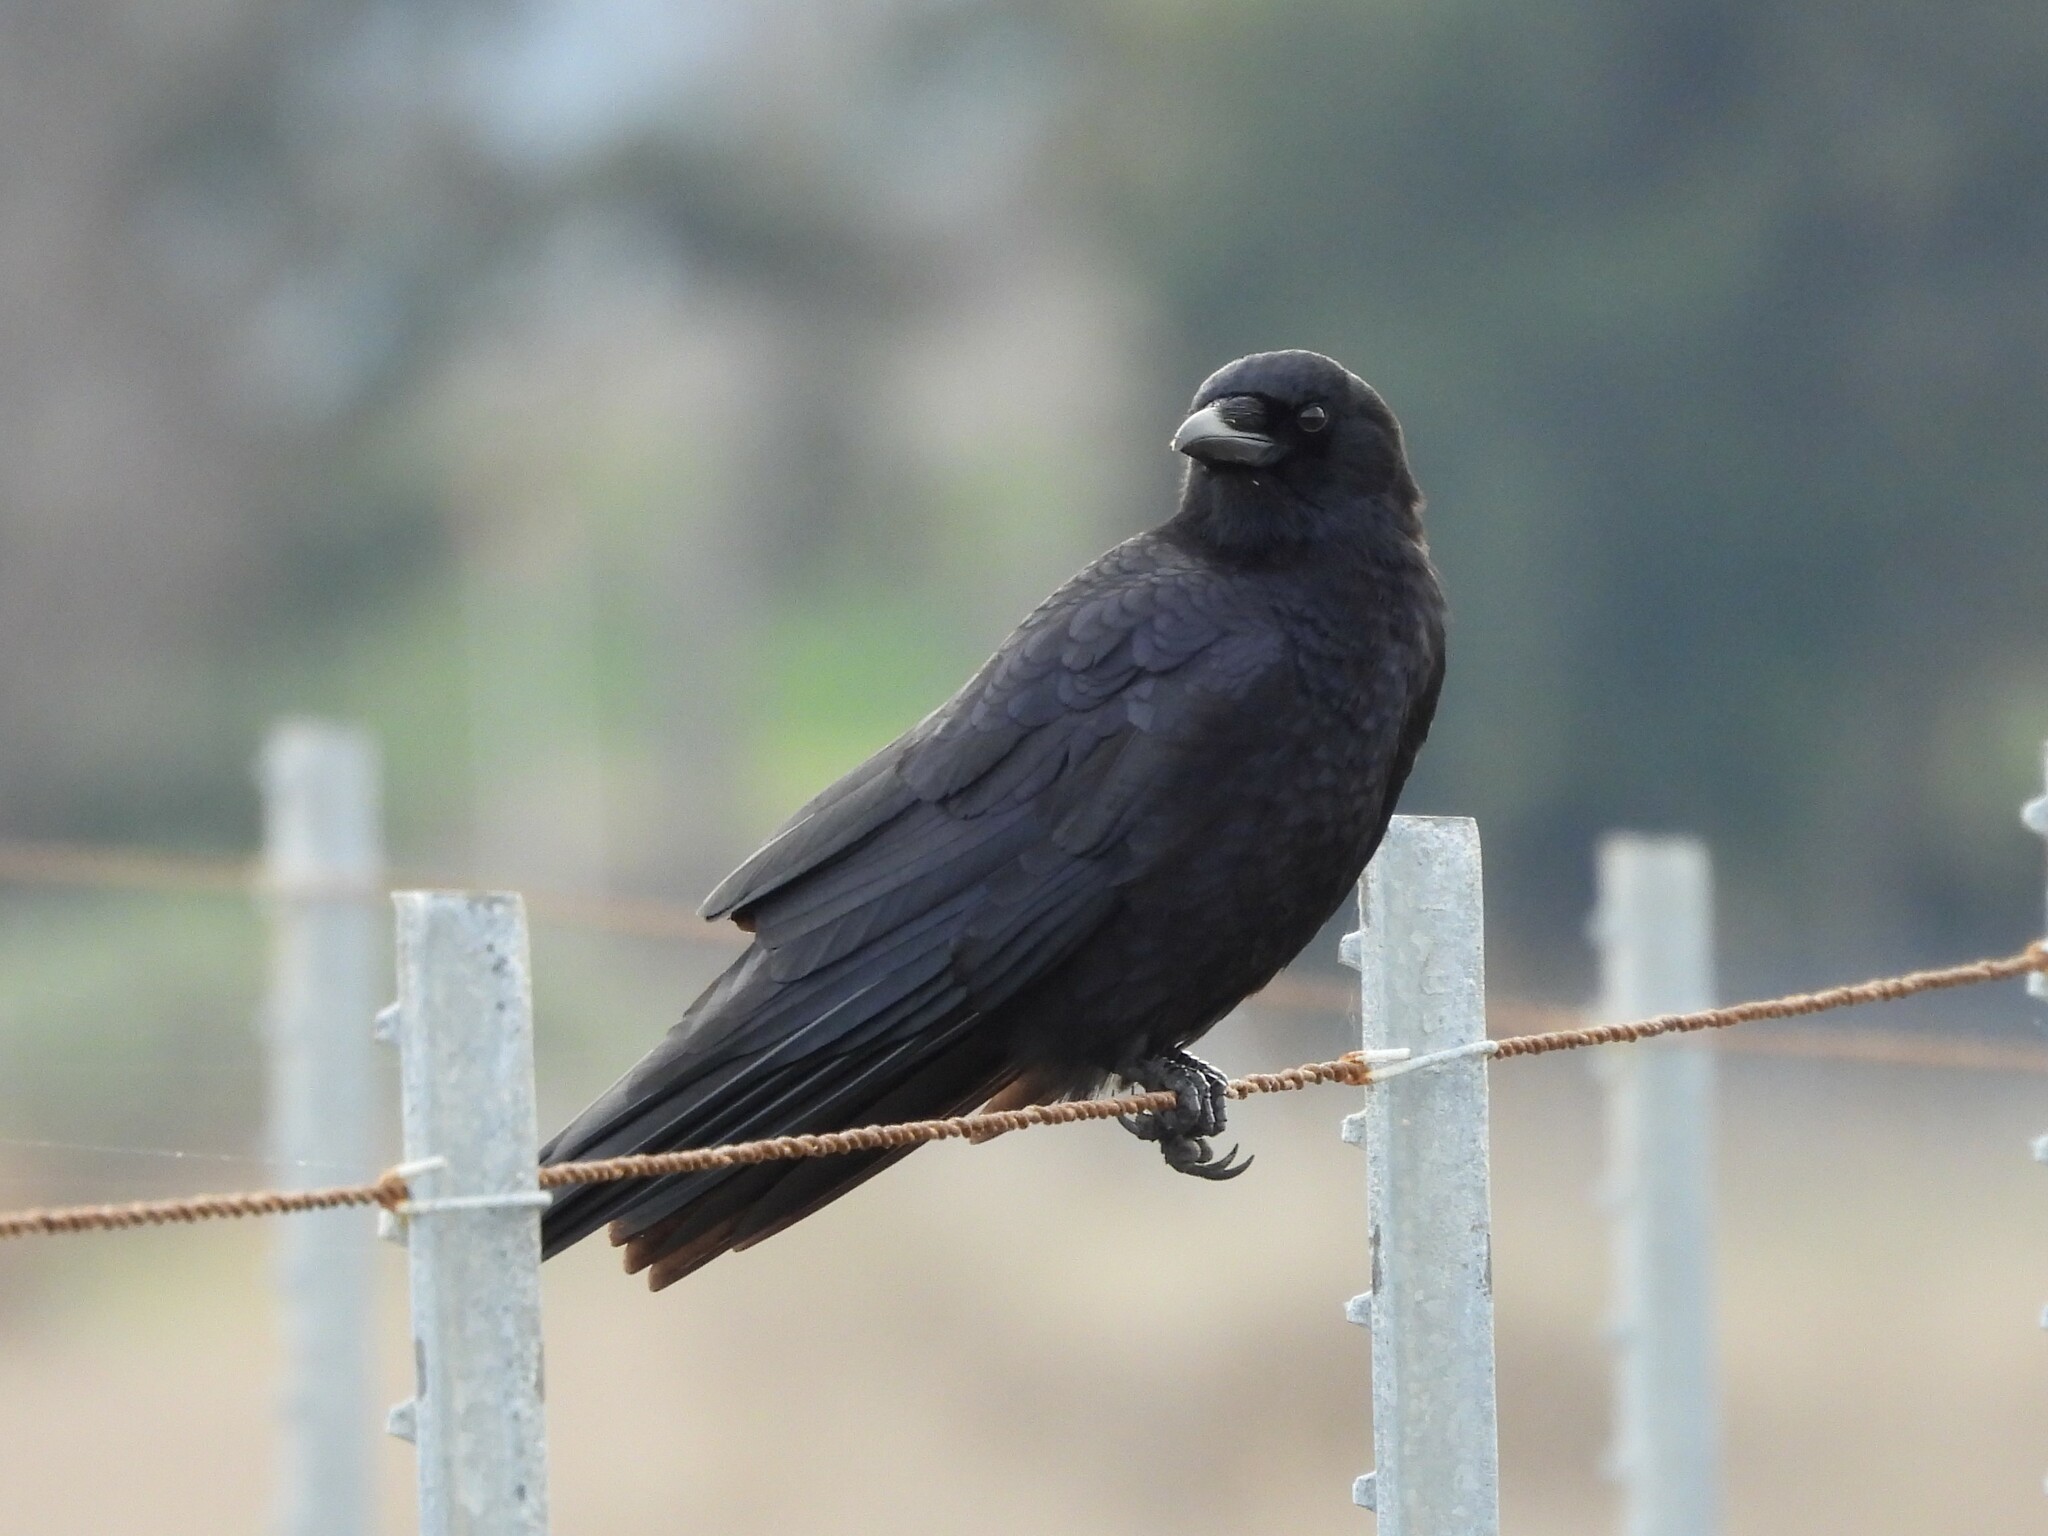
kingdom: Animalia
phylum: Chordata
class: Aves
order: Passeriformes
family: Corvidae
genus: Corvus
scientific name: Corvus brachyrhynchos
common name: American crow
